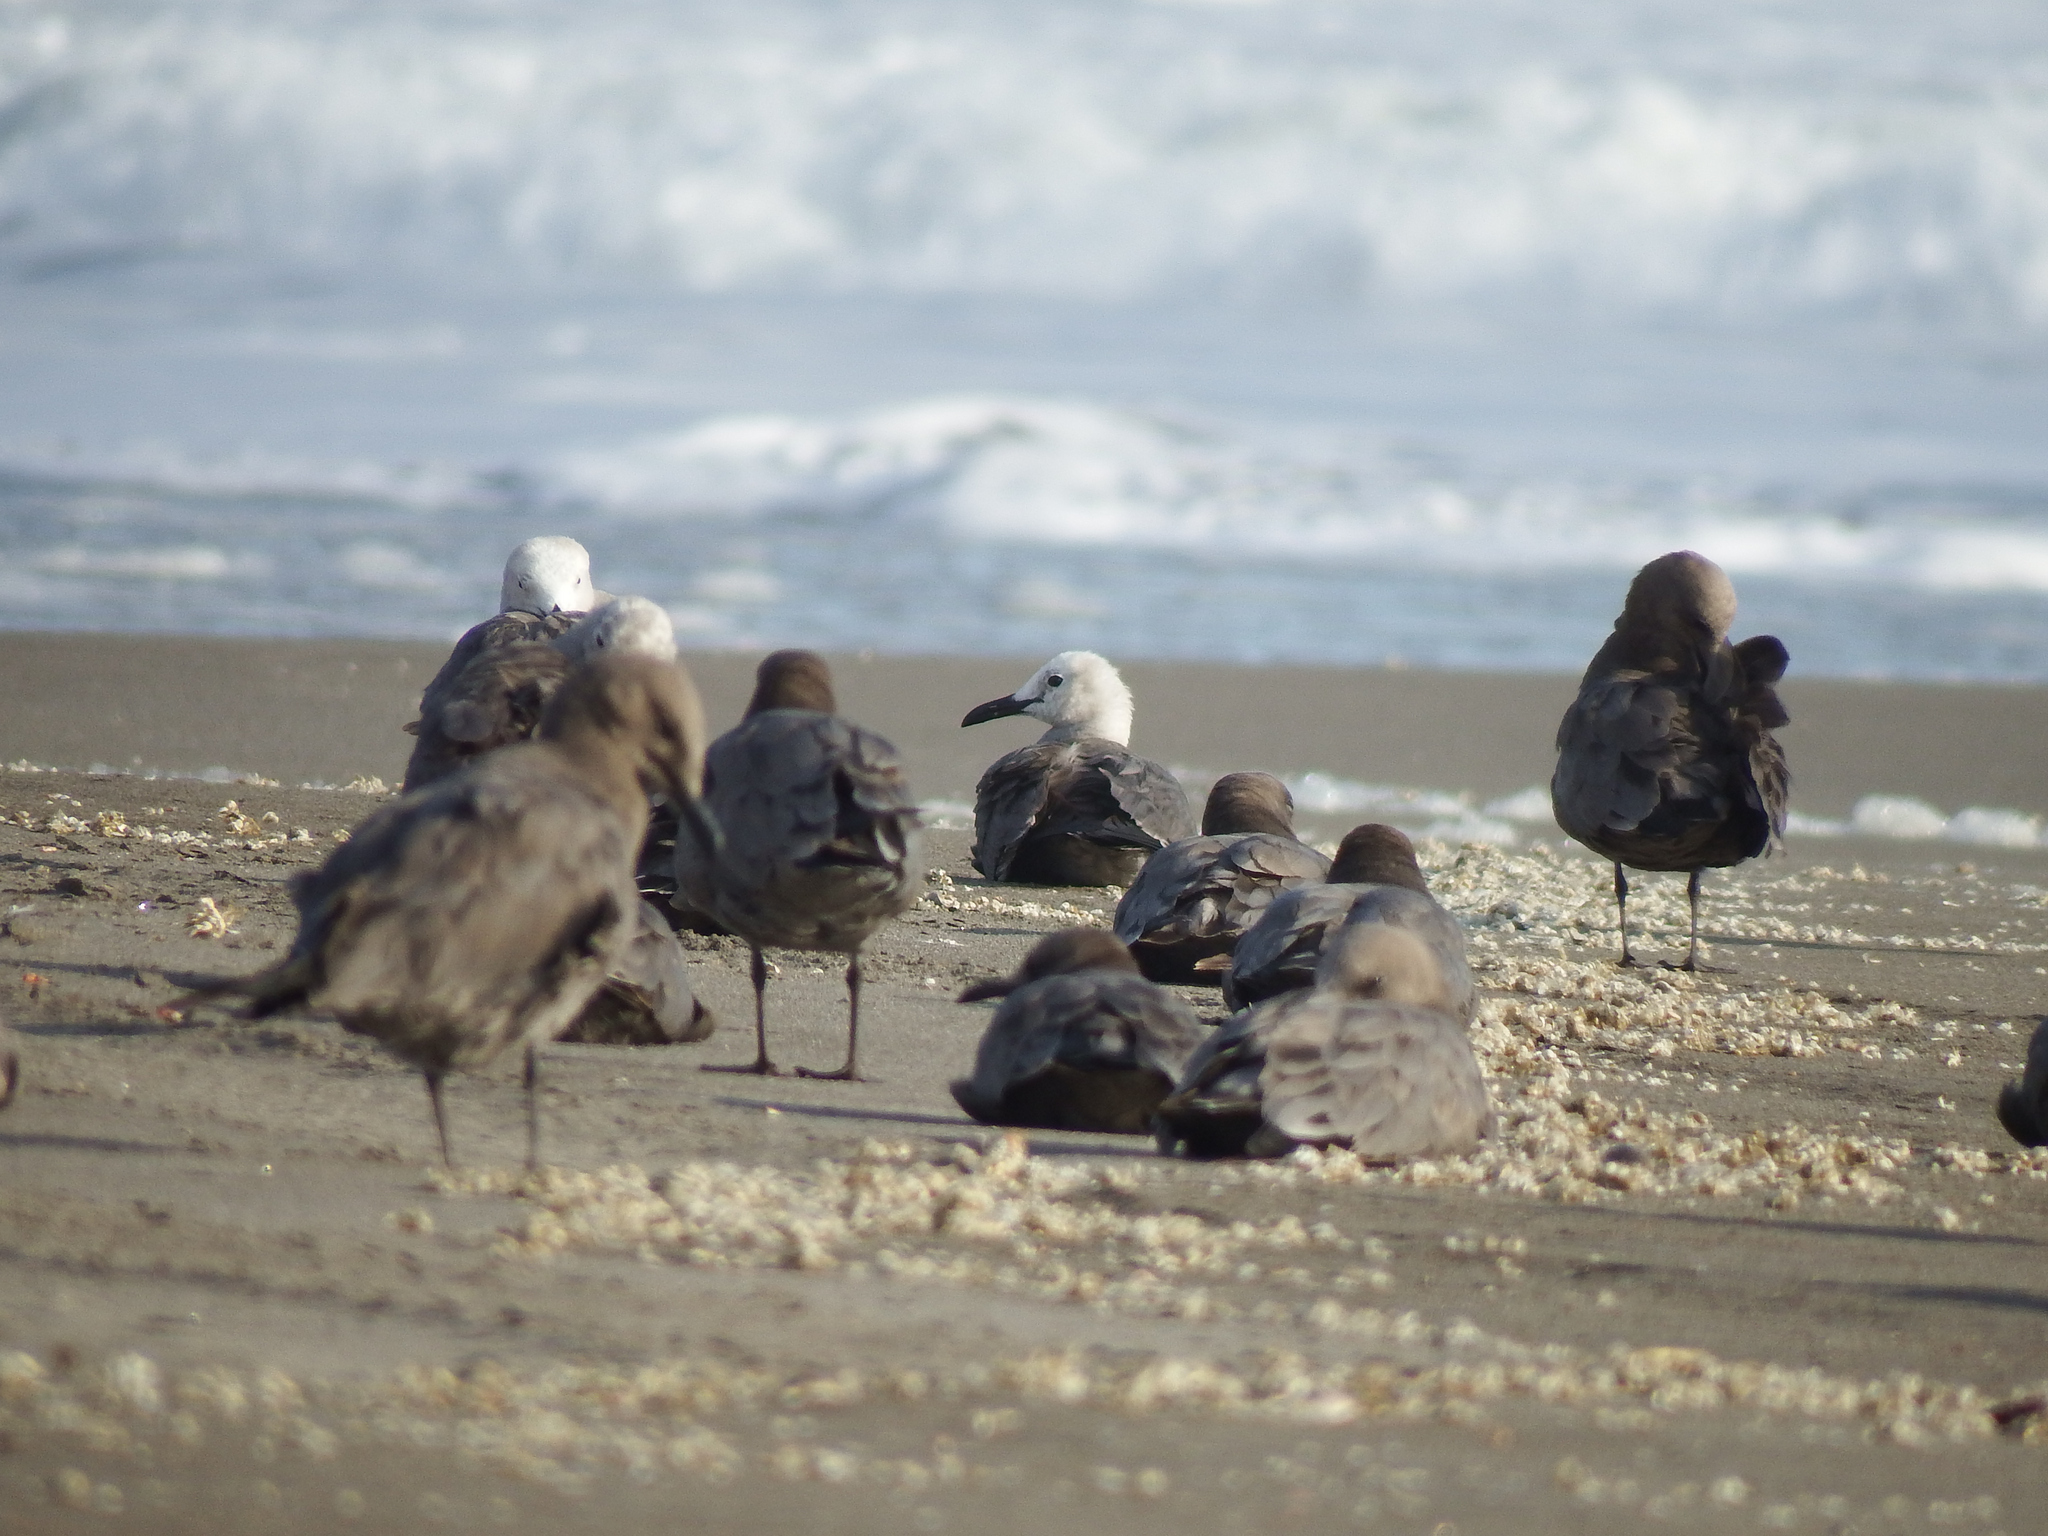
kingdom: Animalia
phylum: Chordata
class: Aves
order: Charadriiformes
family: Laridae
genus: Leucophaeus
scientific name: Leucophaeus modestus
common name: Gray gull
